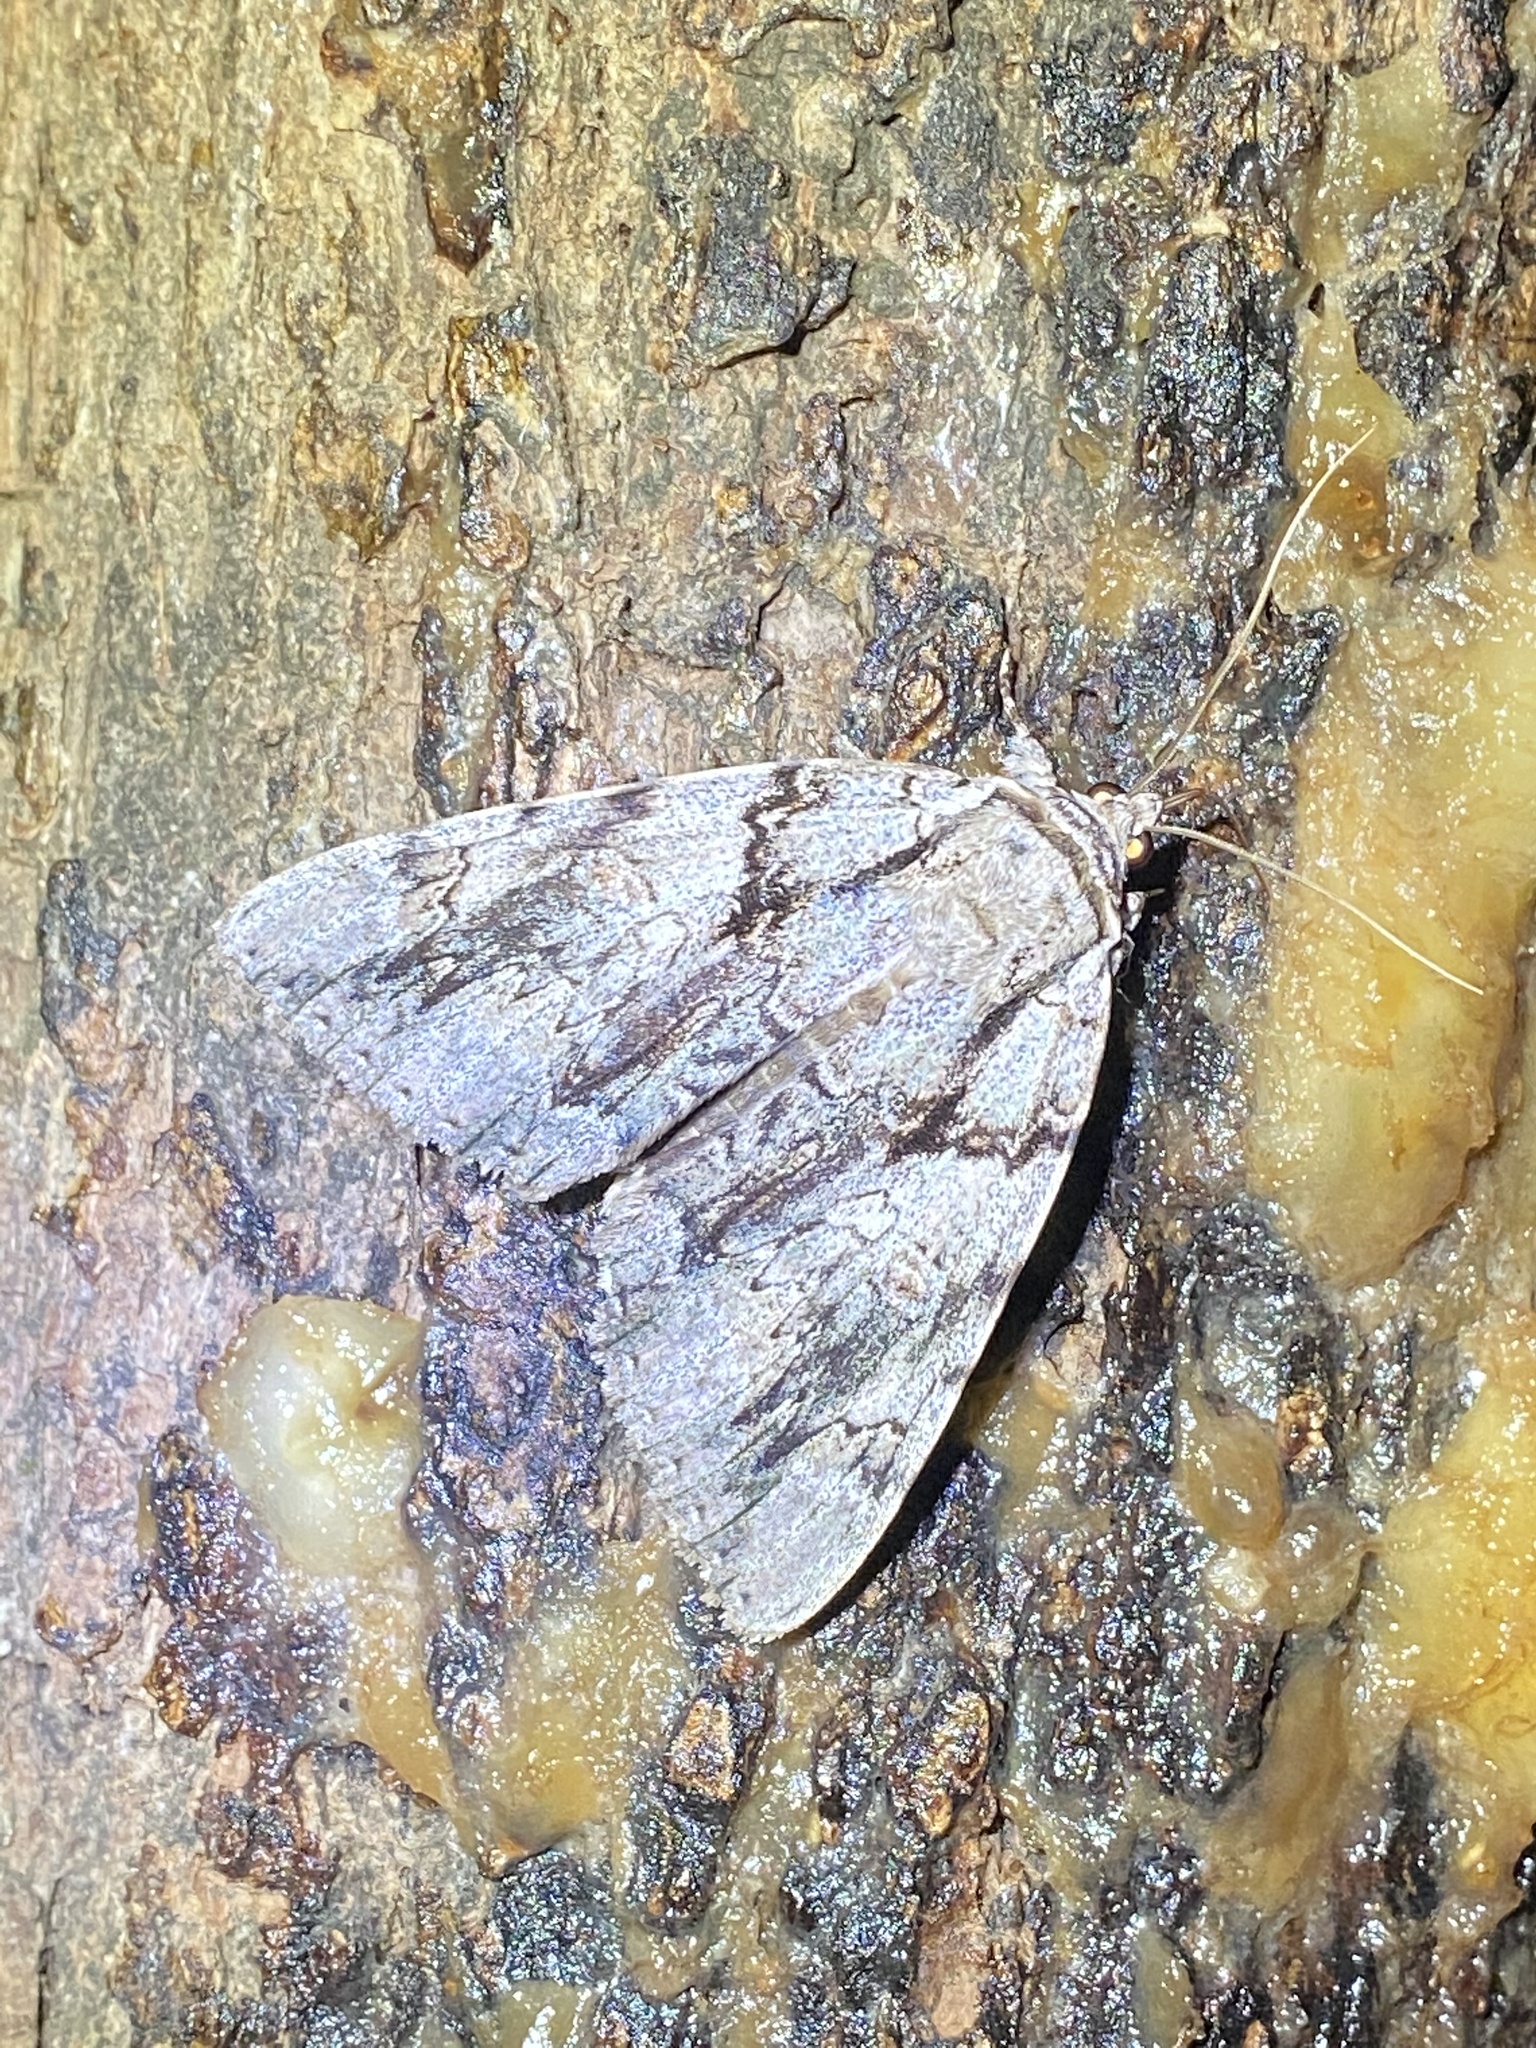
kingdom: Animalia
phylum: Arthropoda
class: Insecta
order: Lepidoptera
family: Erebidae
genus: Catocala
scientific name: Catocala vidua
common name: The widow
